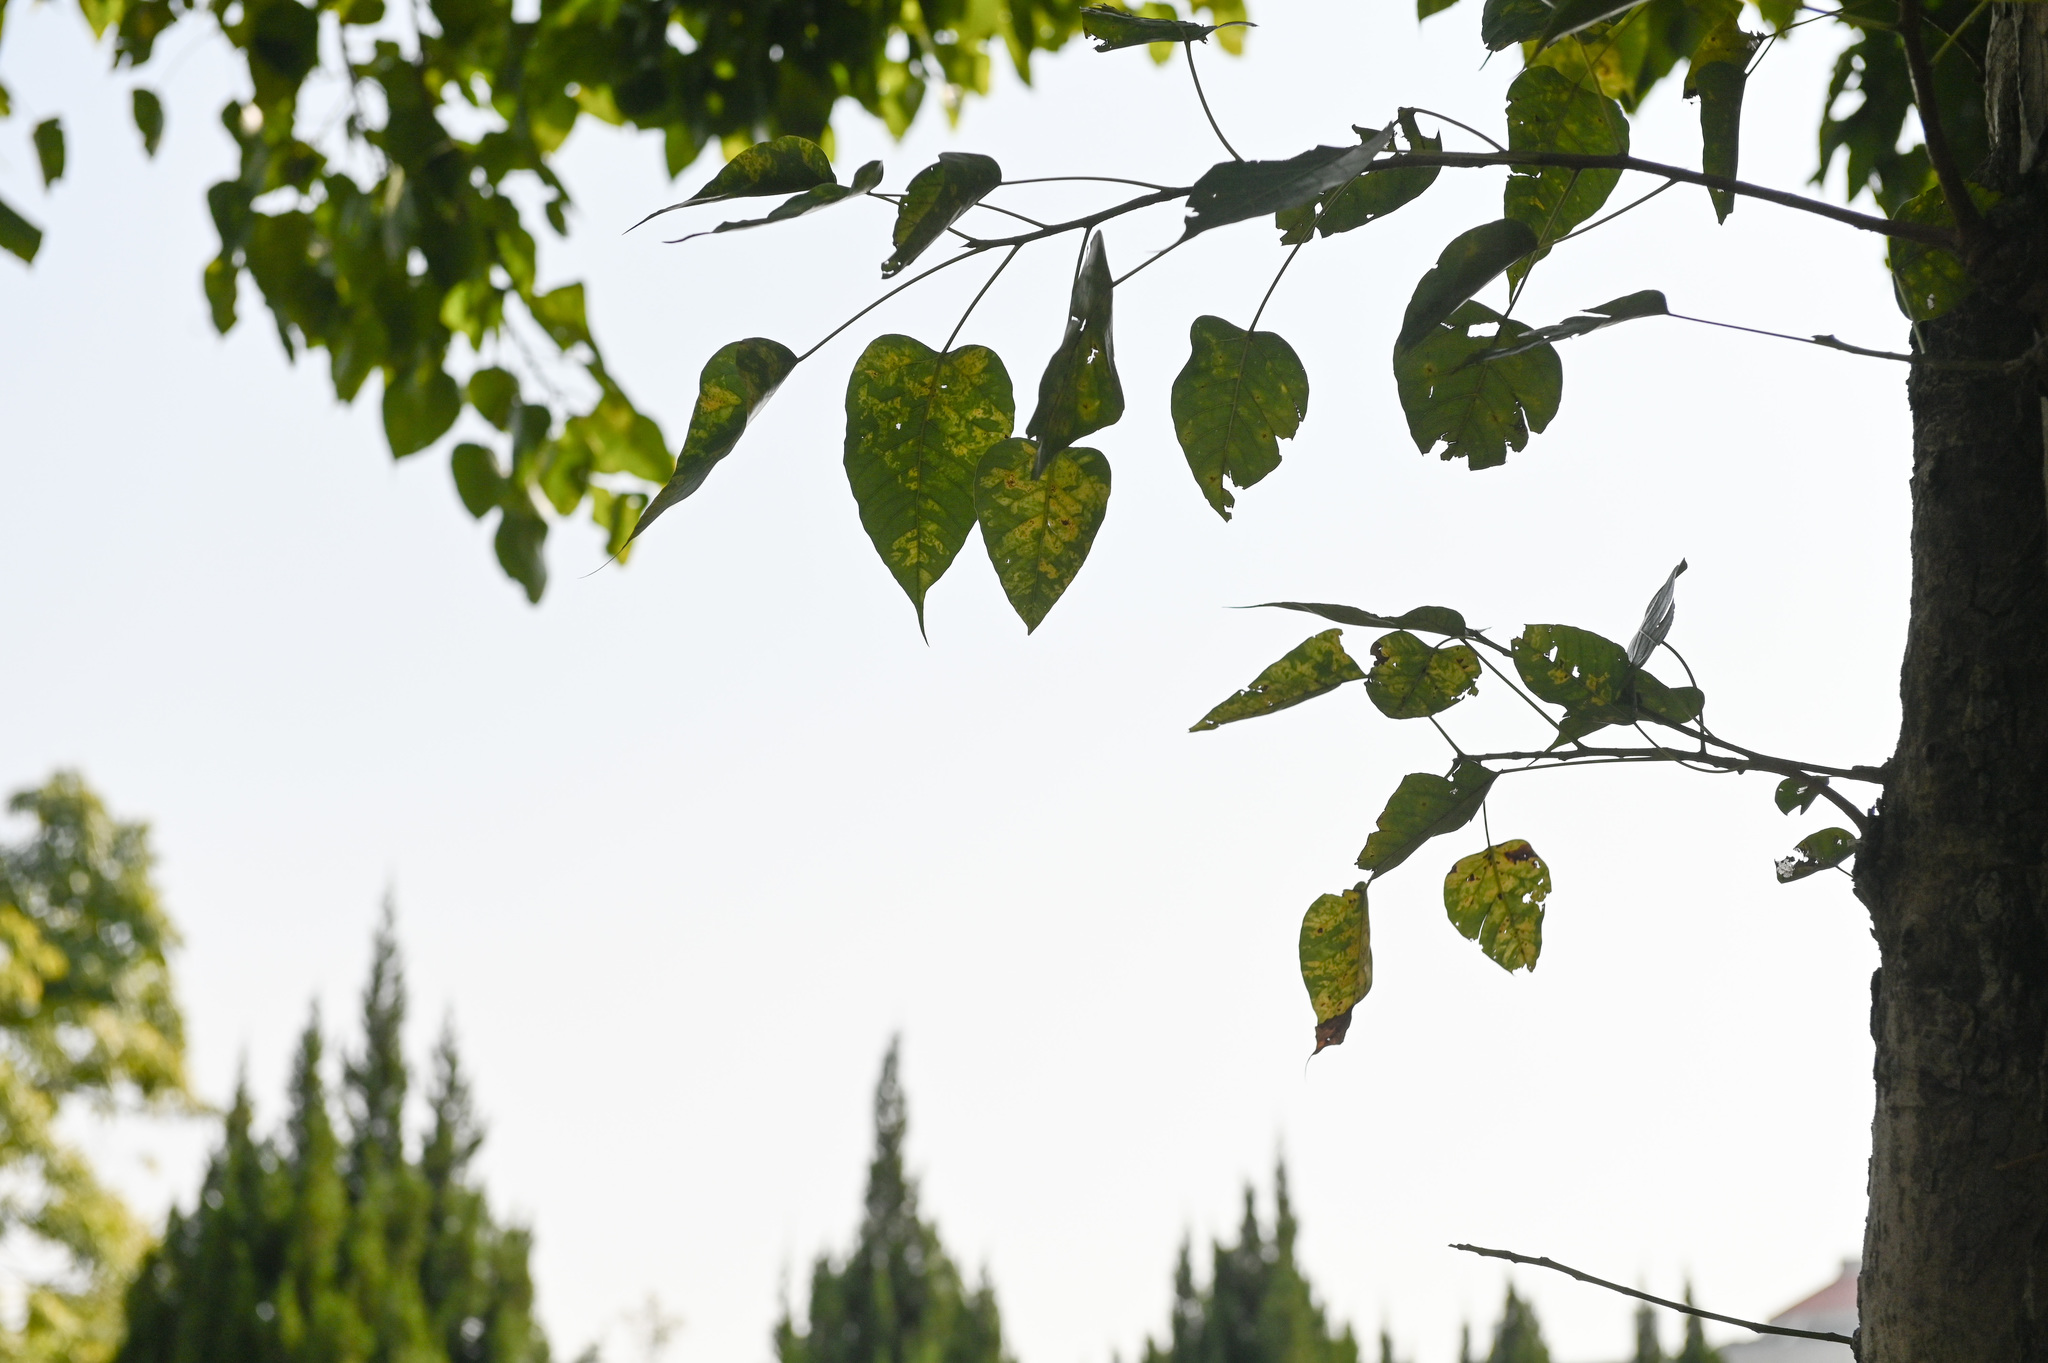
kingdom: Plantae
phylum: Tracheophyta
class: Magnoliopsida
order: Rosales
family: Moraceae
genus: Ficus
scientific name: Ficus religiosa
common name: Bodhi tree
